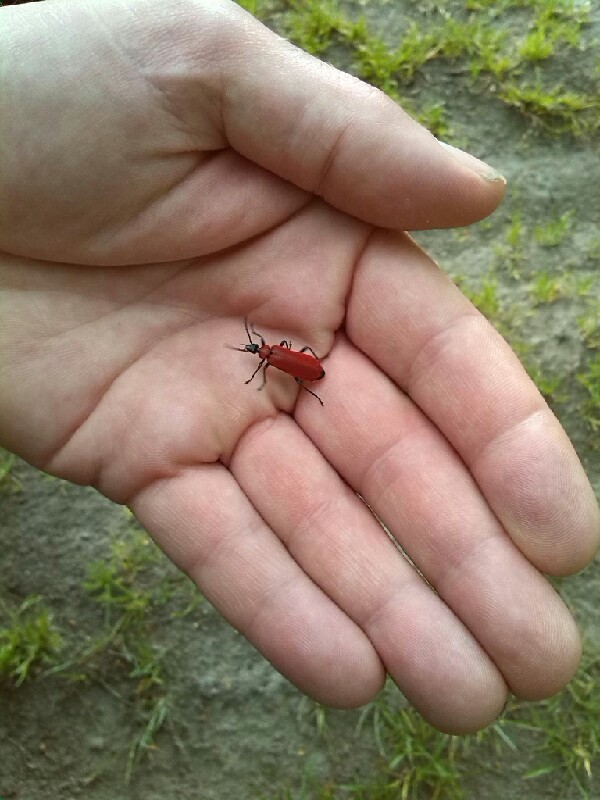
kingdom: Animalia
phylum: Arthropoda
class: Insecta
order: Coleoptera
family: Pyrochroidae
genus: Pyrochroa
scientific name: Pyrochroa coccinea
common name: Black-headed cardinal beetle
